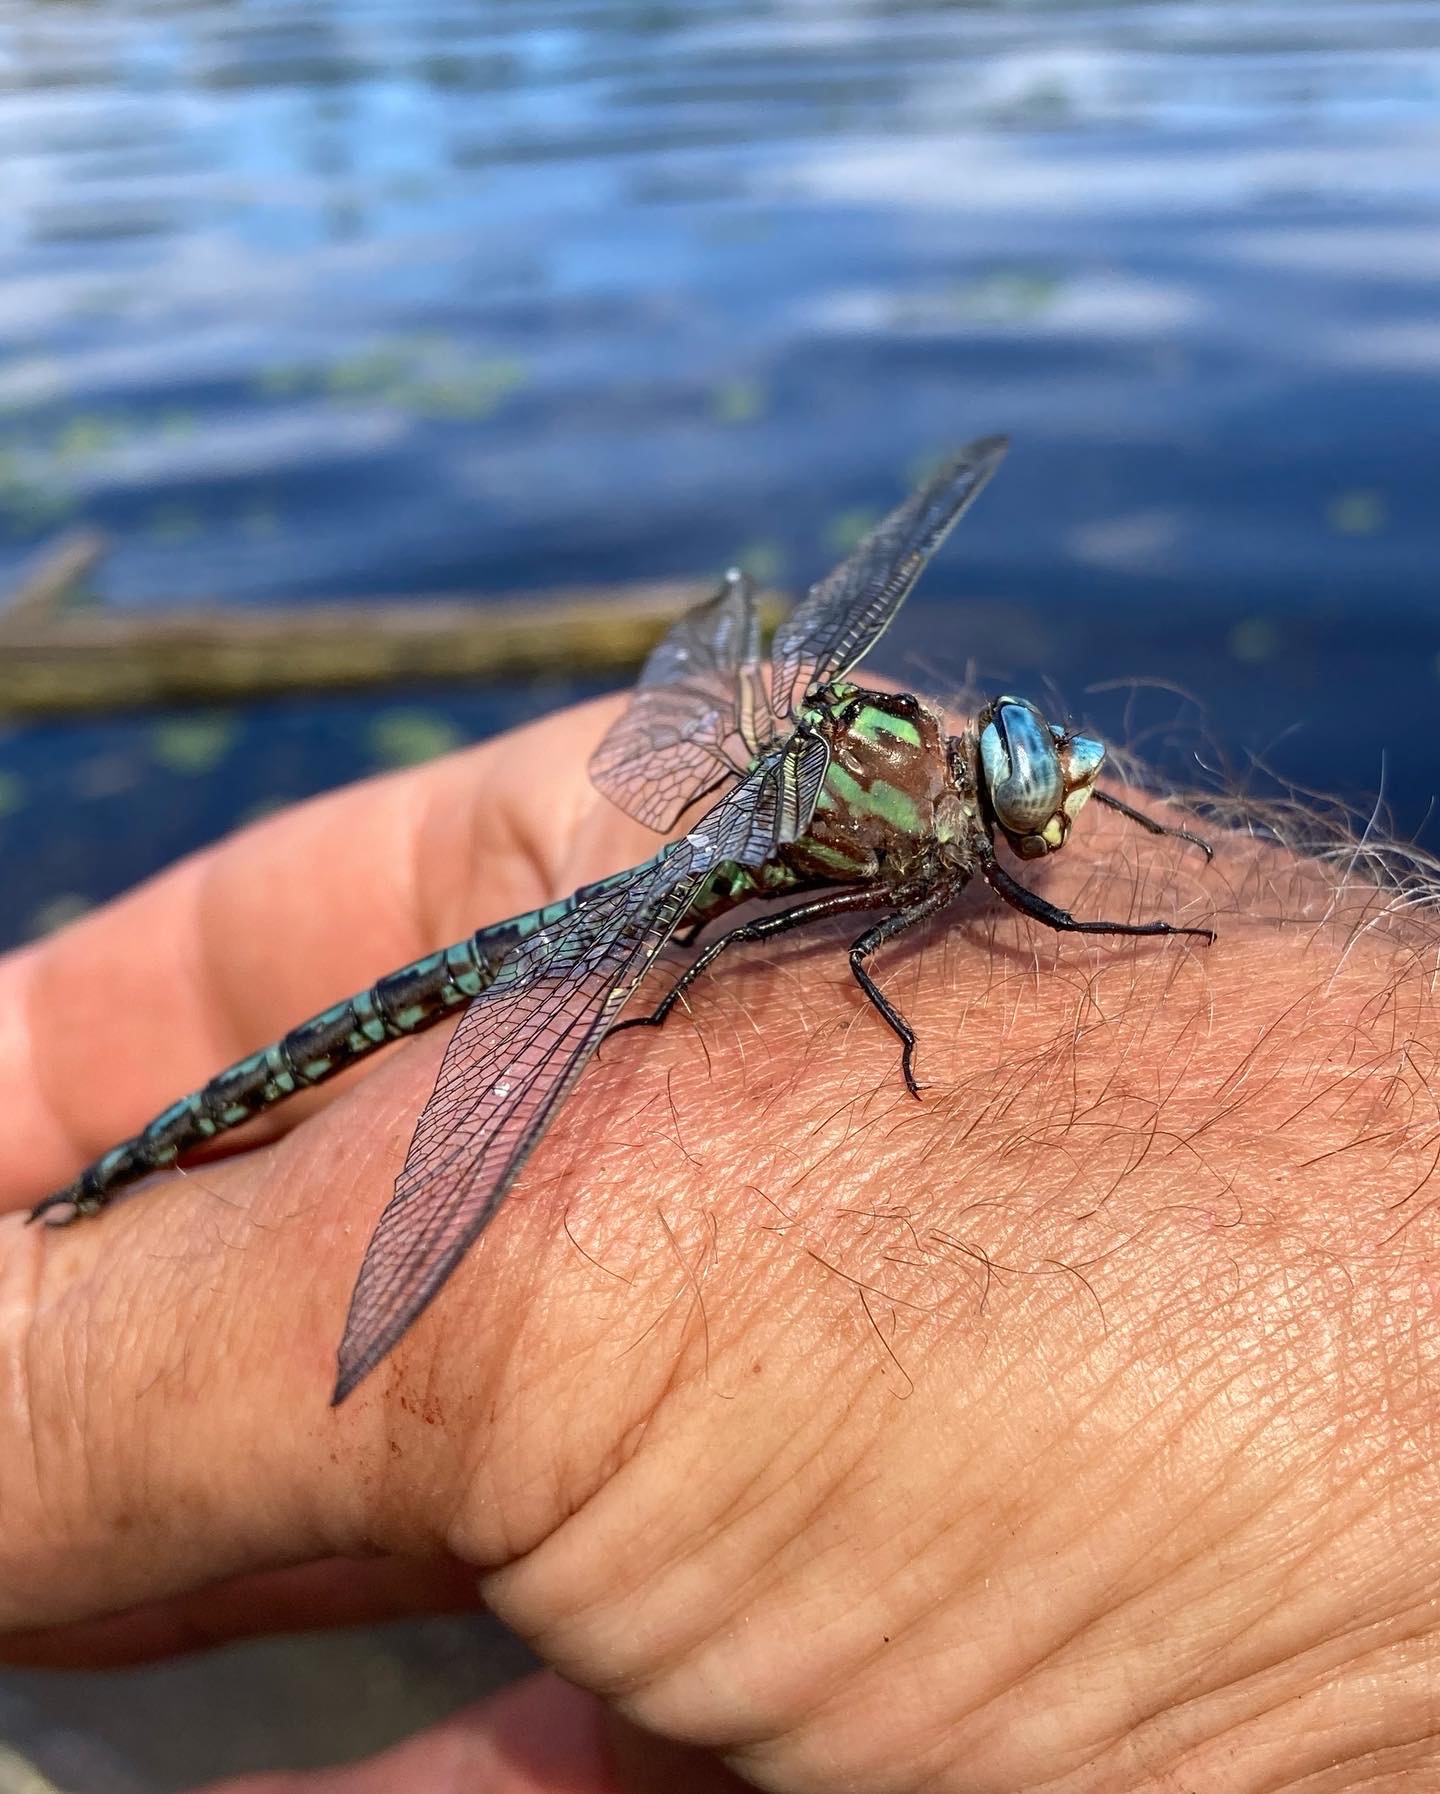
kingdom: Animalia
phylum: Arthropoda
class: Insecta
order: Odonata
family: Aeshnidae
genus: Nasiaeschna
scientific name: Nasiaeschna pentacantha
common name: Cyrano darner
